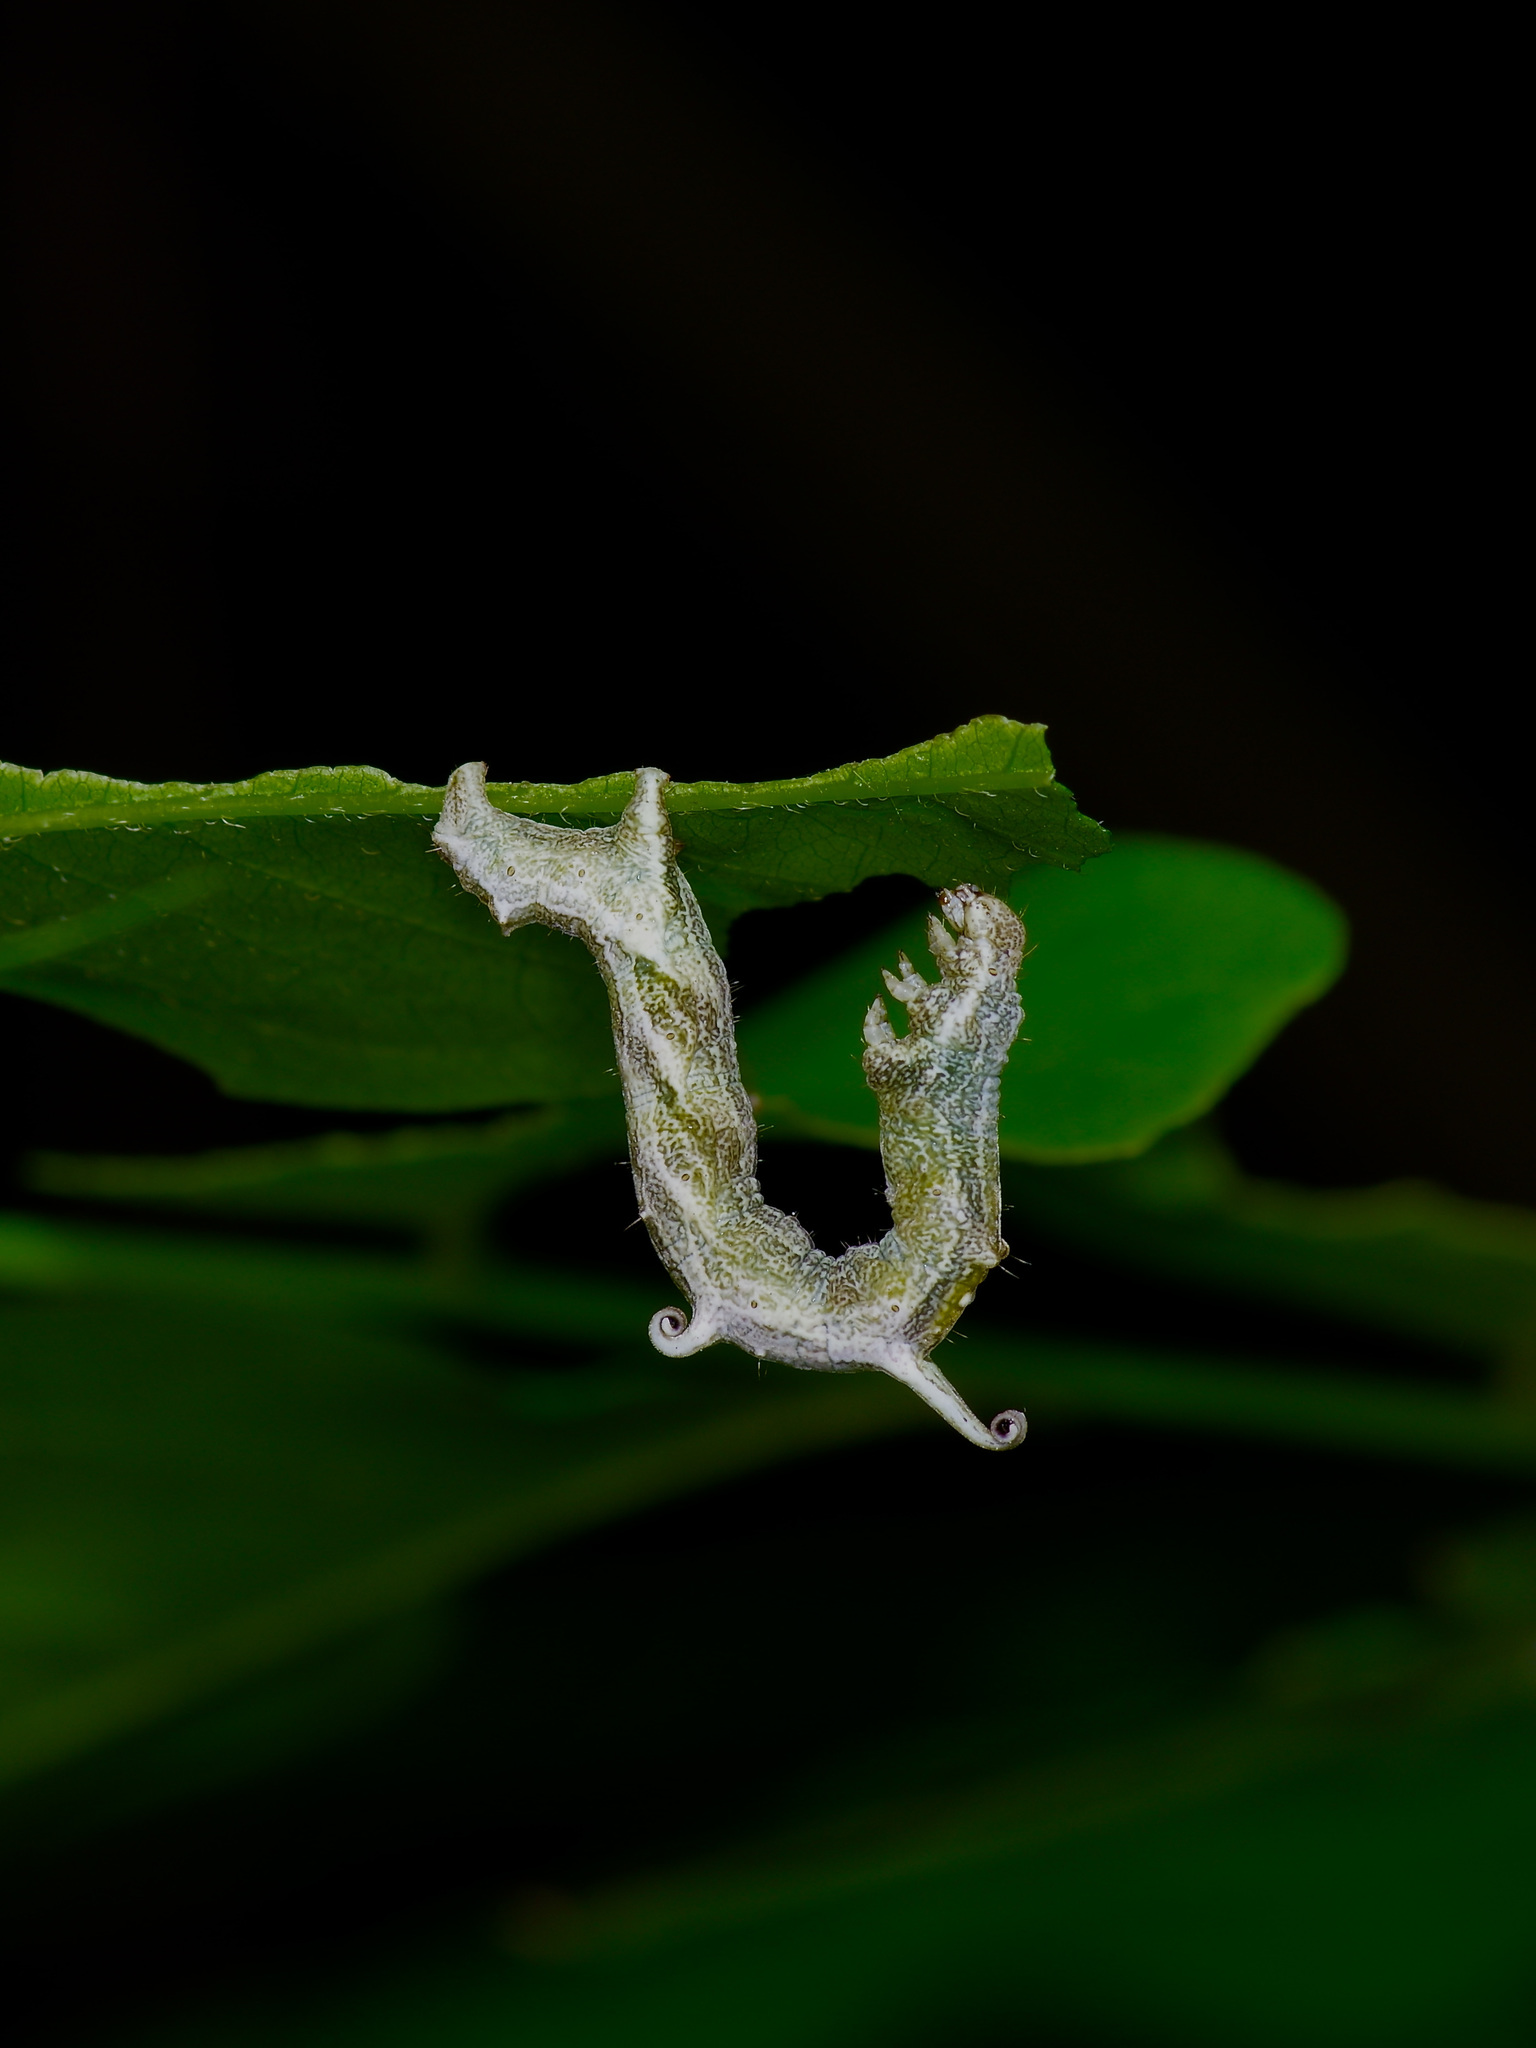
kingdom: Animalia
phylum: Arthropoda
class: Insecta
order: Lepidoptera
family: Geometridae
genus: Nematocampa
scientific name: Nematocampa resistaria
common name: Horned spanworm moth
